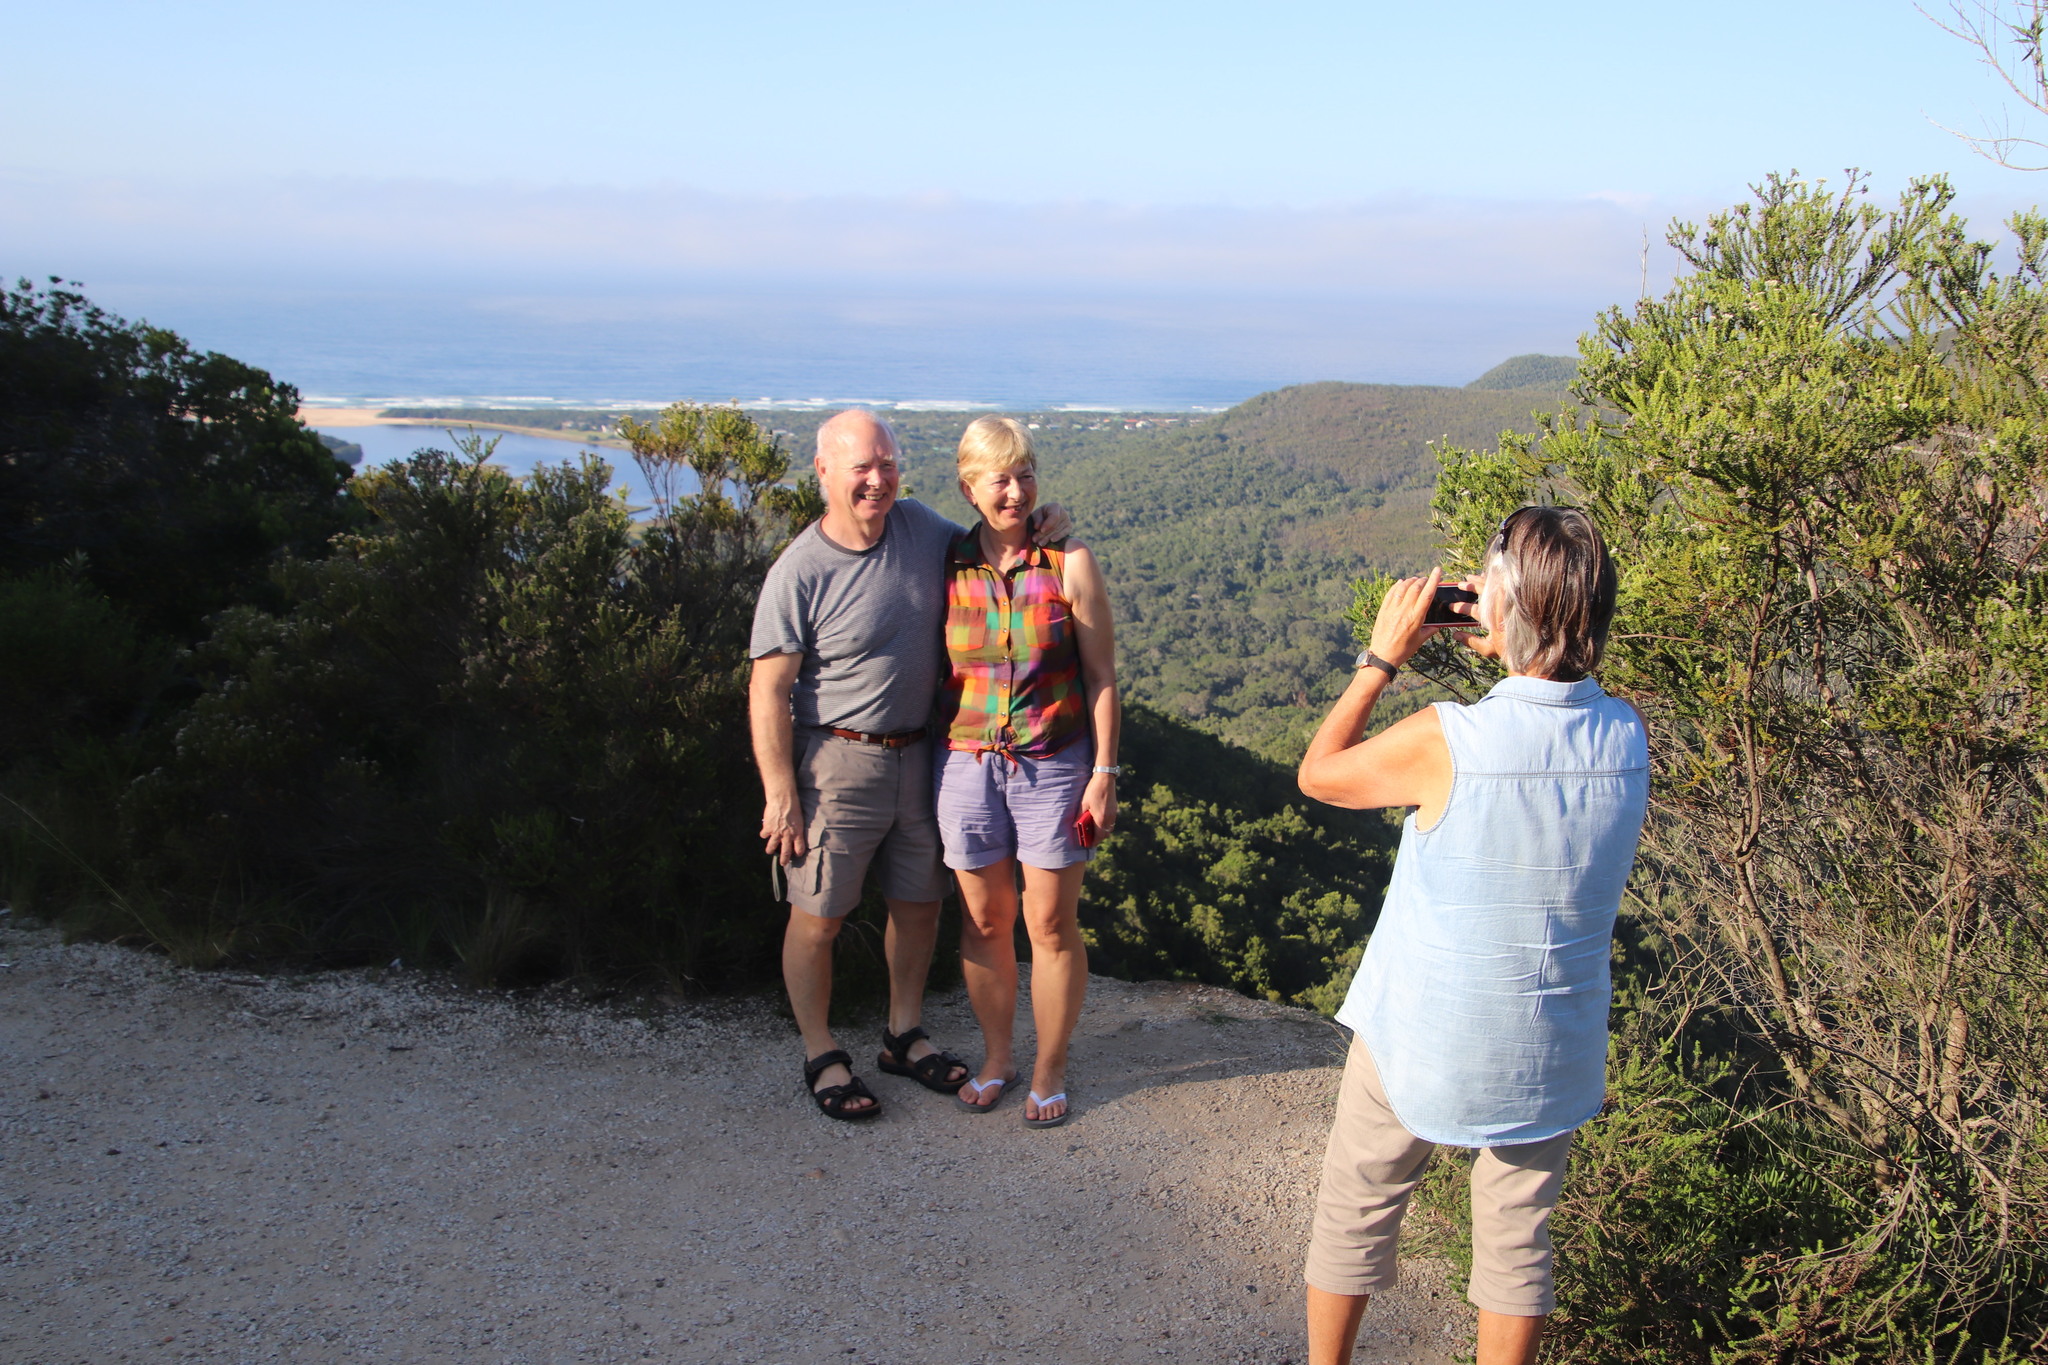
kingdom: Plantae
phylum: Tracheophyta
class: Magnoliopsida
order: Asterales
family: Asteraceae
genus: Euryops
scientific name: Euryops virgineus
